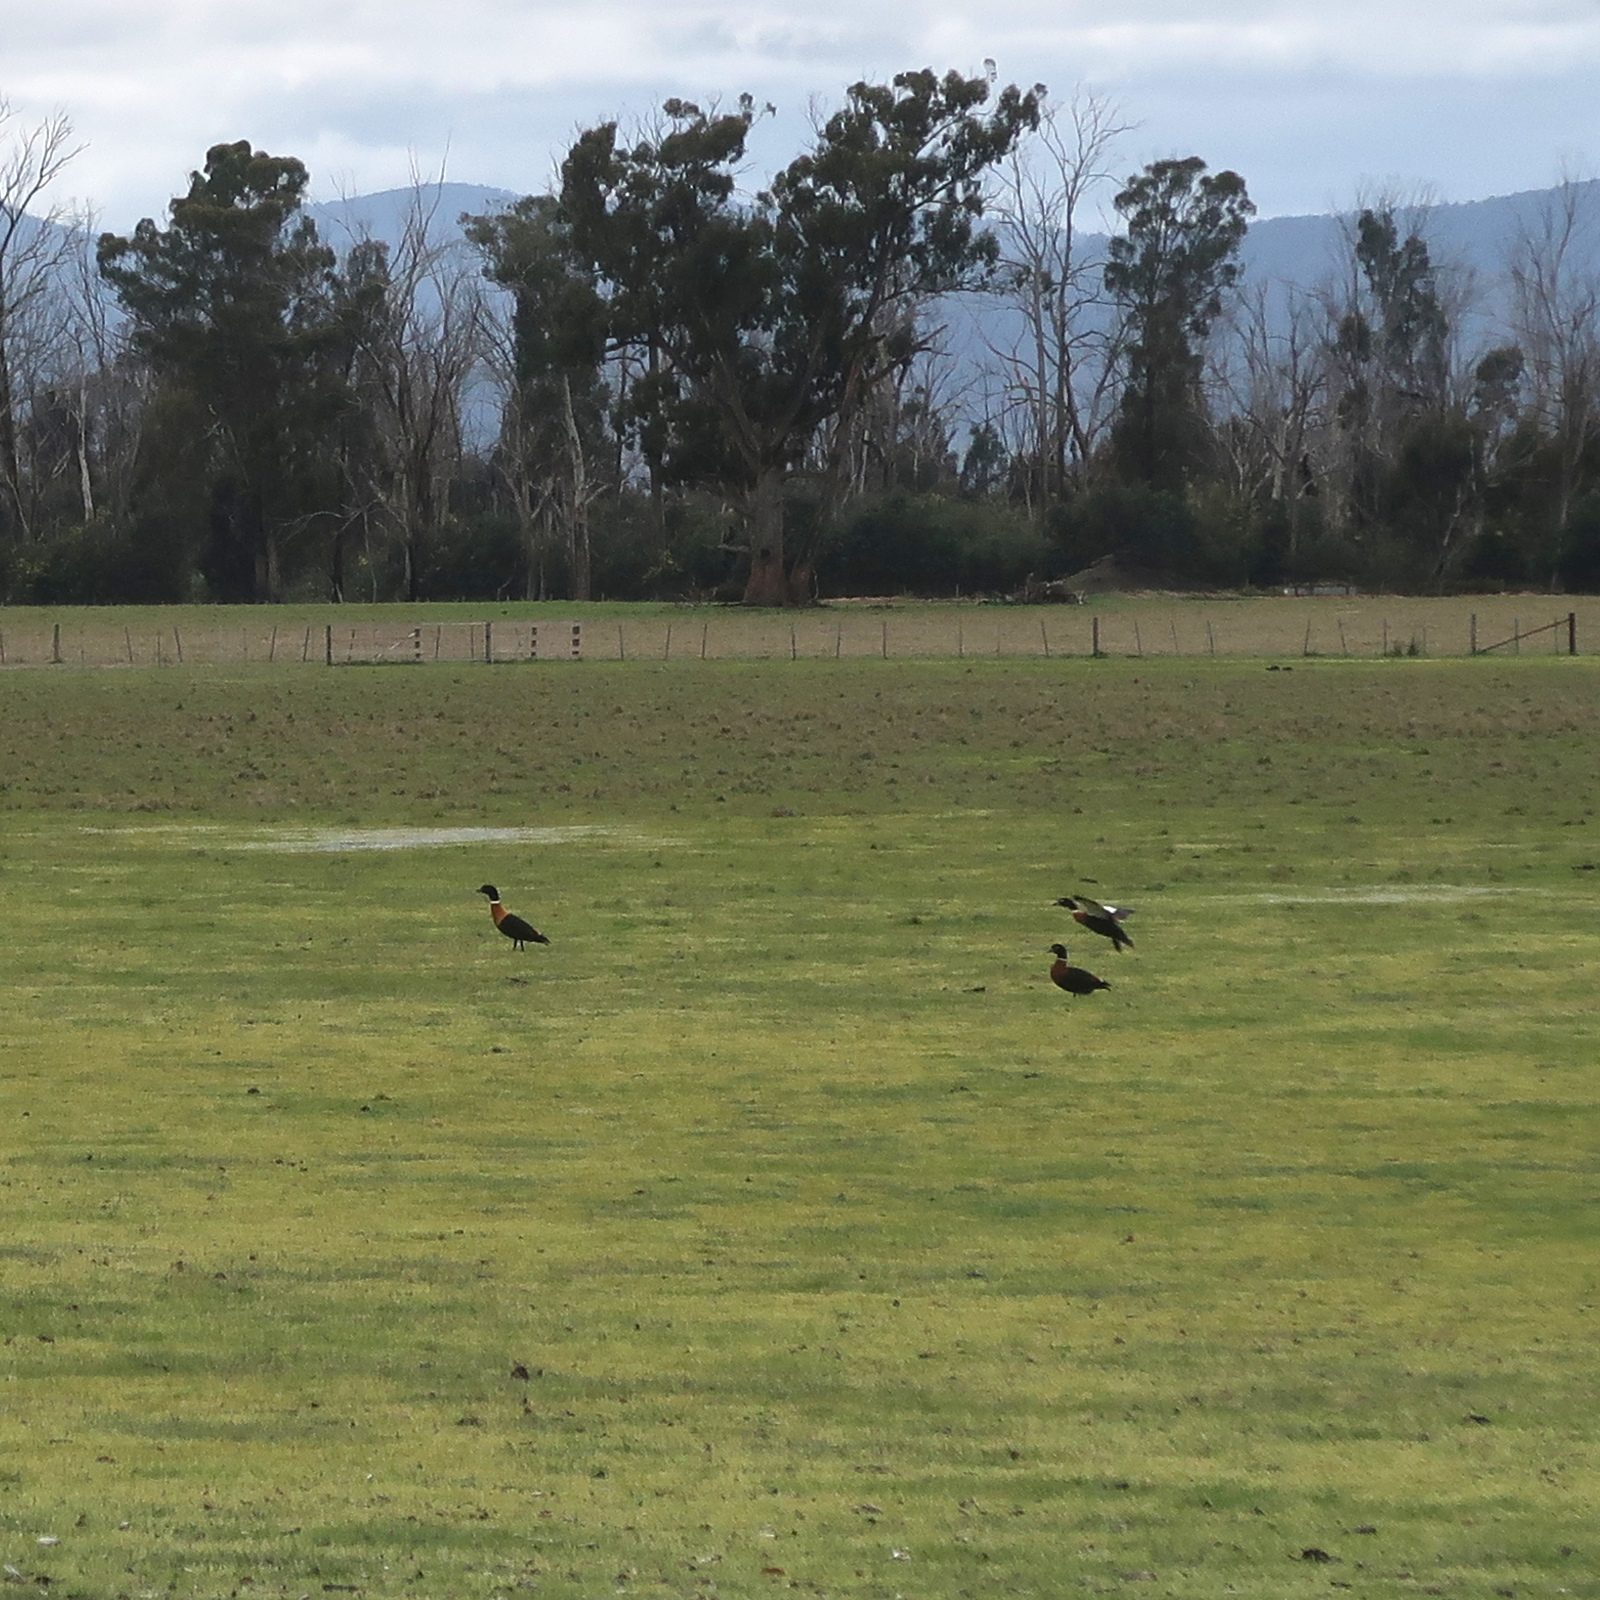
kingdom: Animalia
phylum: Chordata
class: Aves
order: Anseriformes
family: Anatidae
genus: Tadorna
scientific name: Tadorna tadornoides
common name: Australian shelduck
